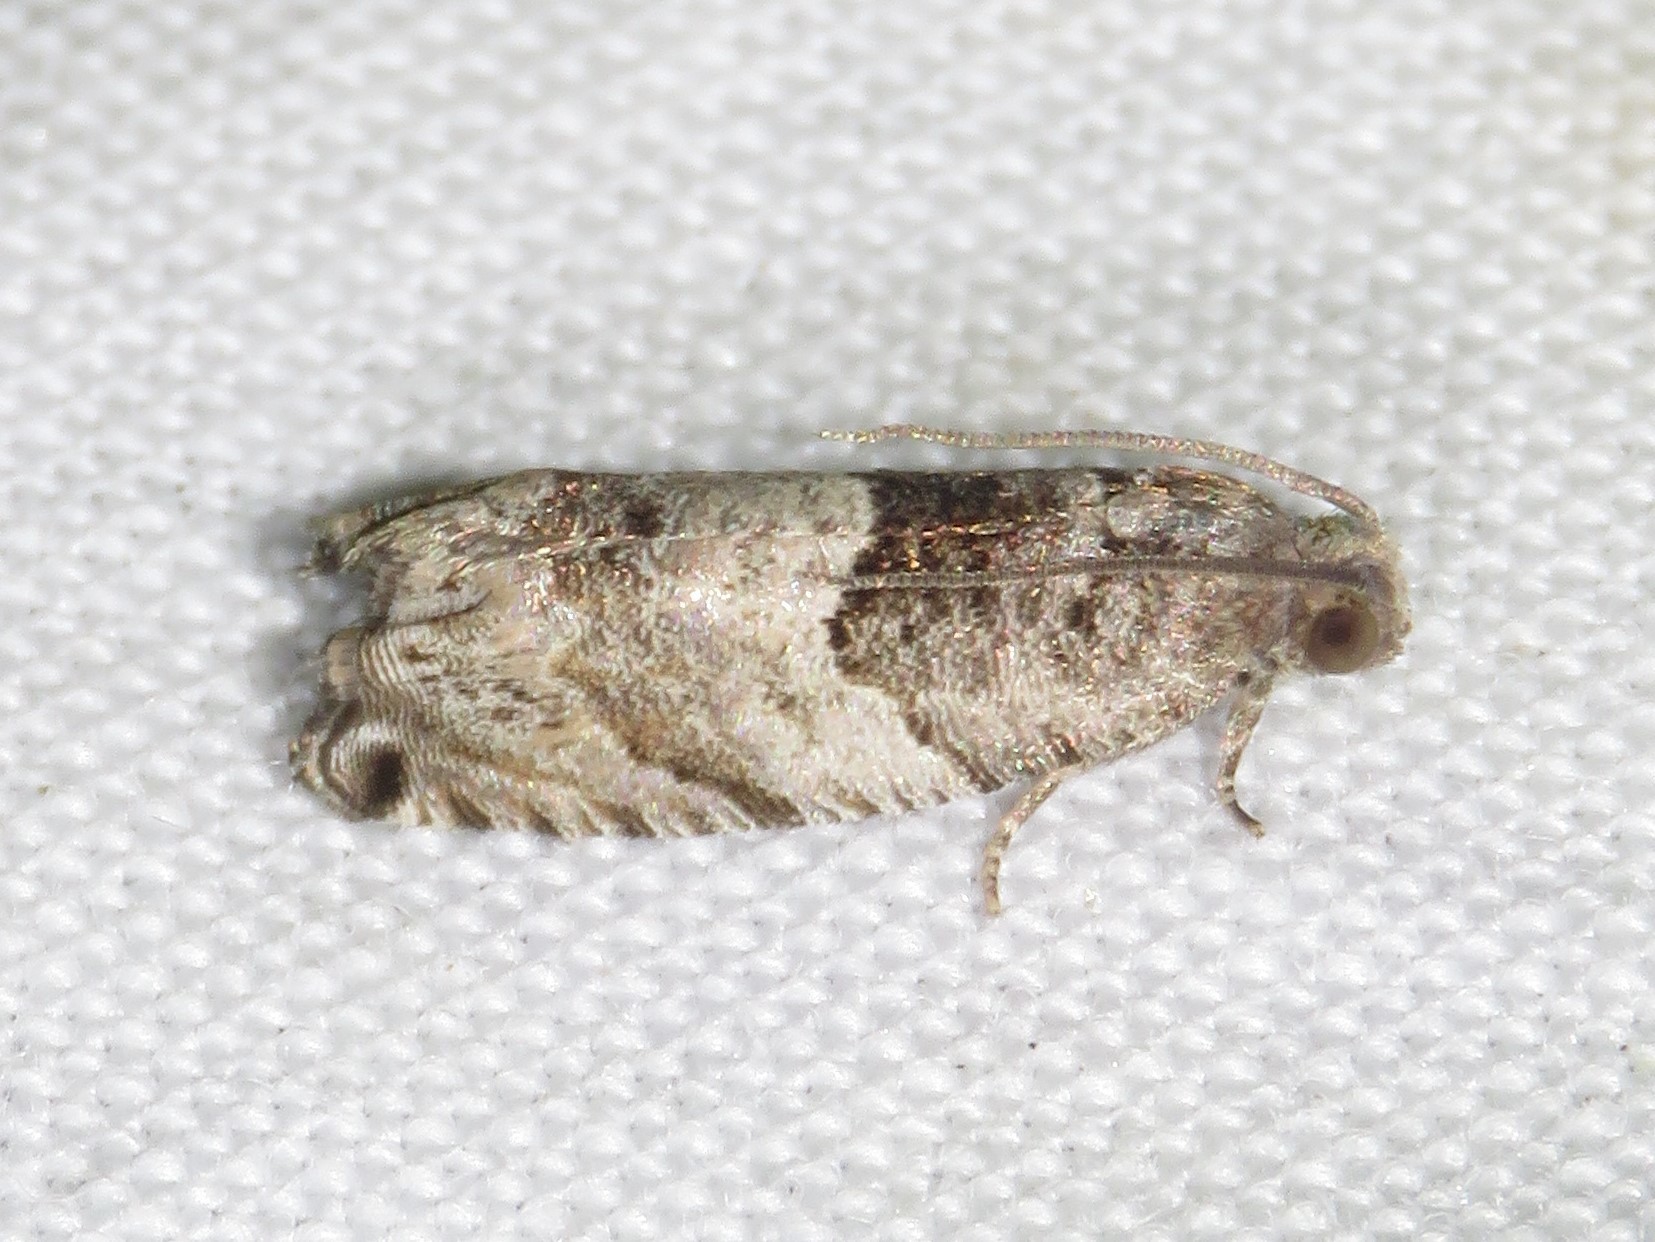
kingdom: Animalia
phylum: Arthropoda
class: Insecta
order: Lepidoptera
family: Tortricidae
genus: Gypsonoma
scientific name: Gypsonoma haimbachiana
